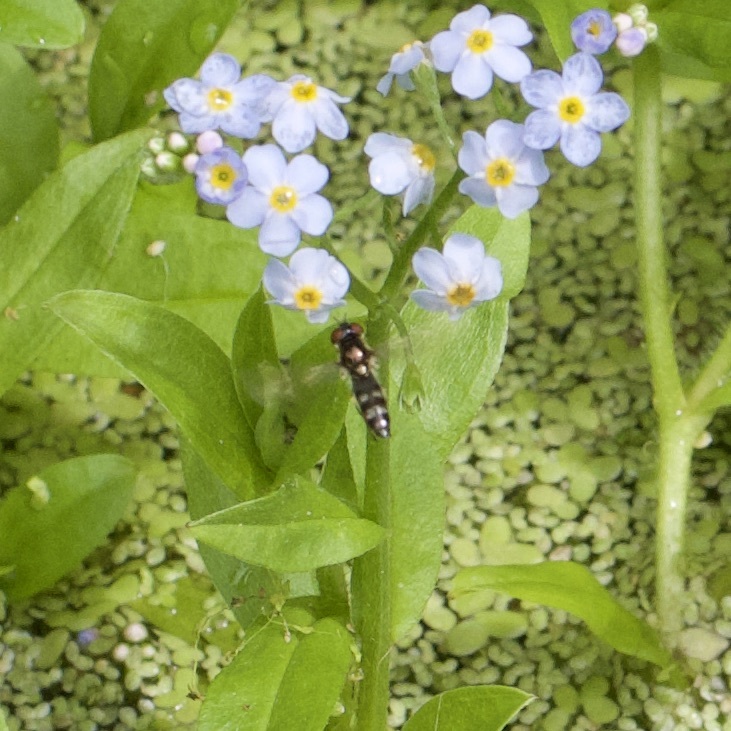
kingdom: Animalia
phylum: Arthropoda
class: Insecta
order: Diptera
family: Syrphidae
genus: Platycheirus
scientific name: Platycheirus albimanus
